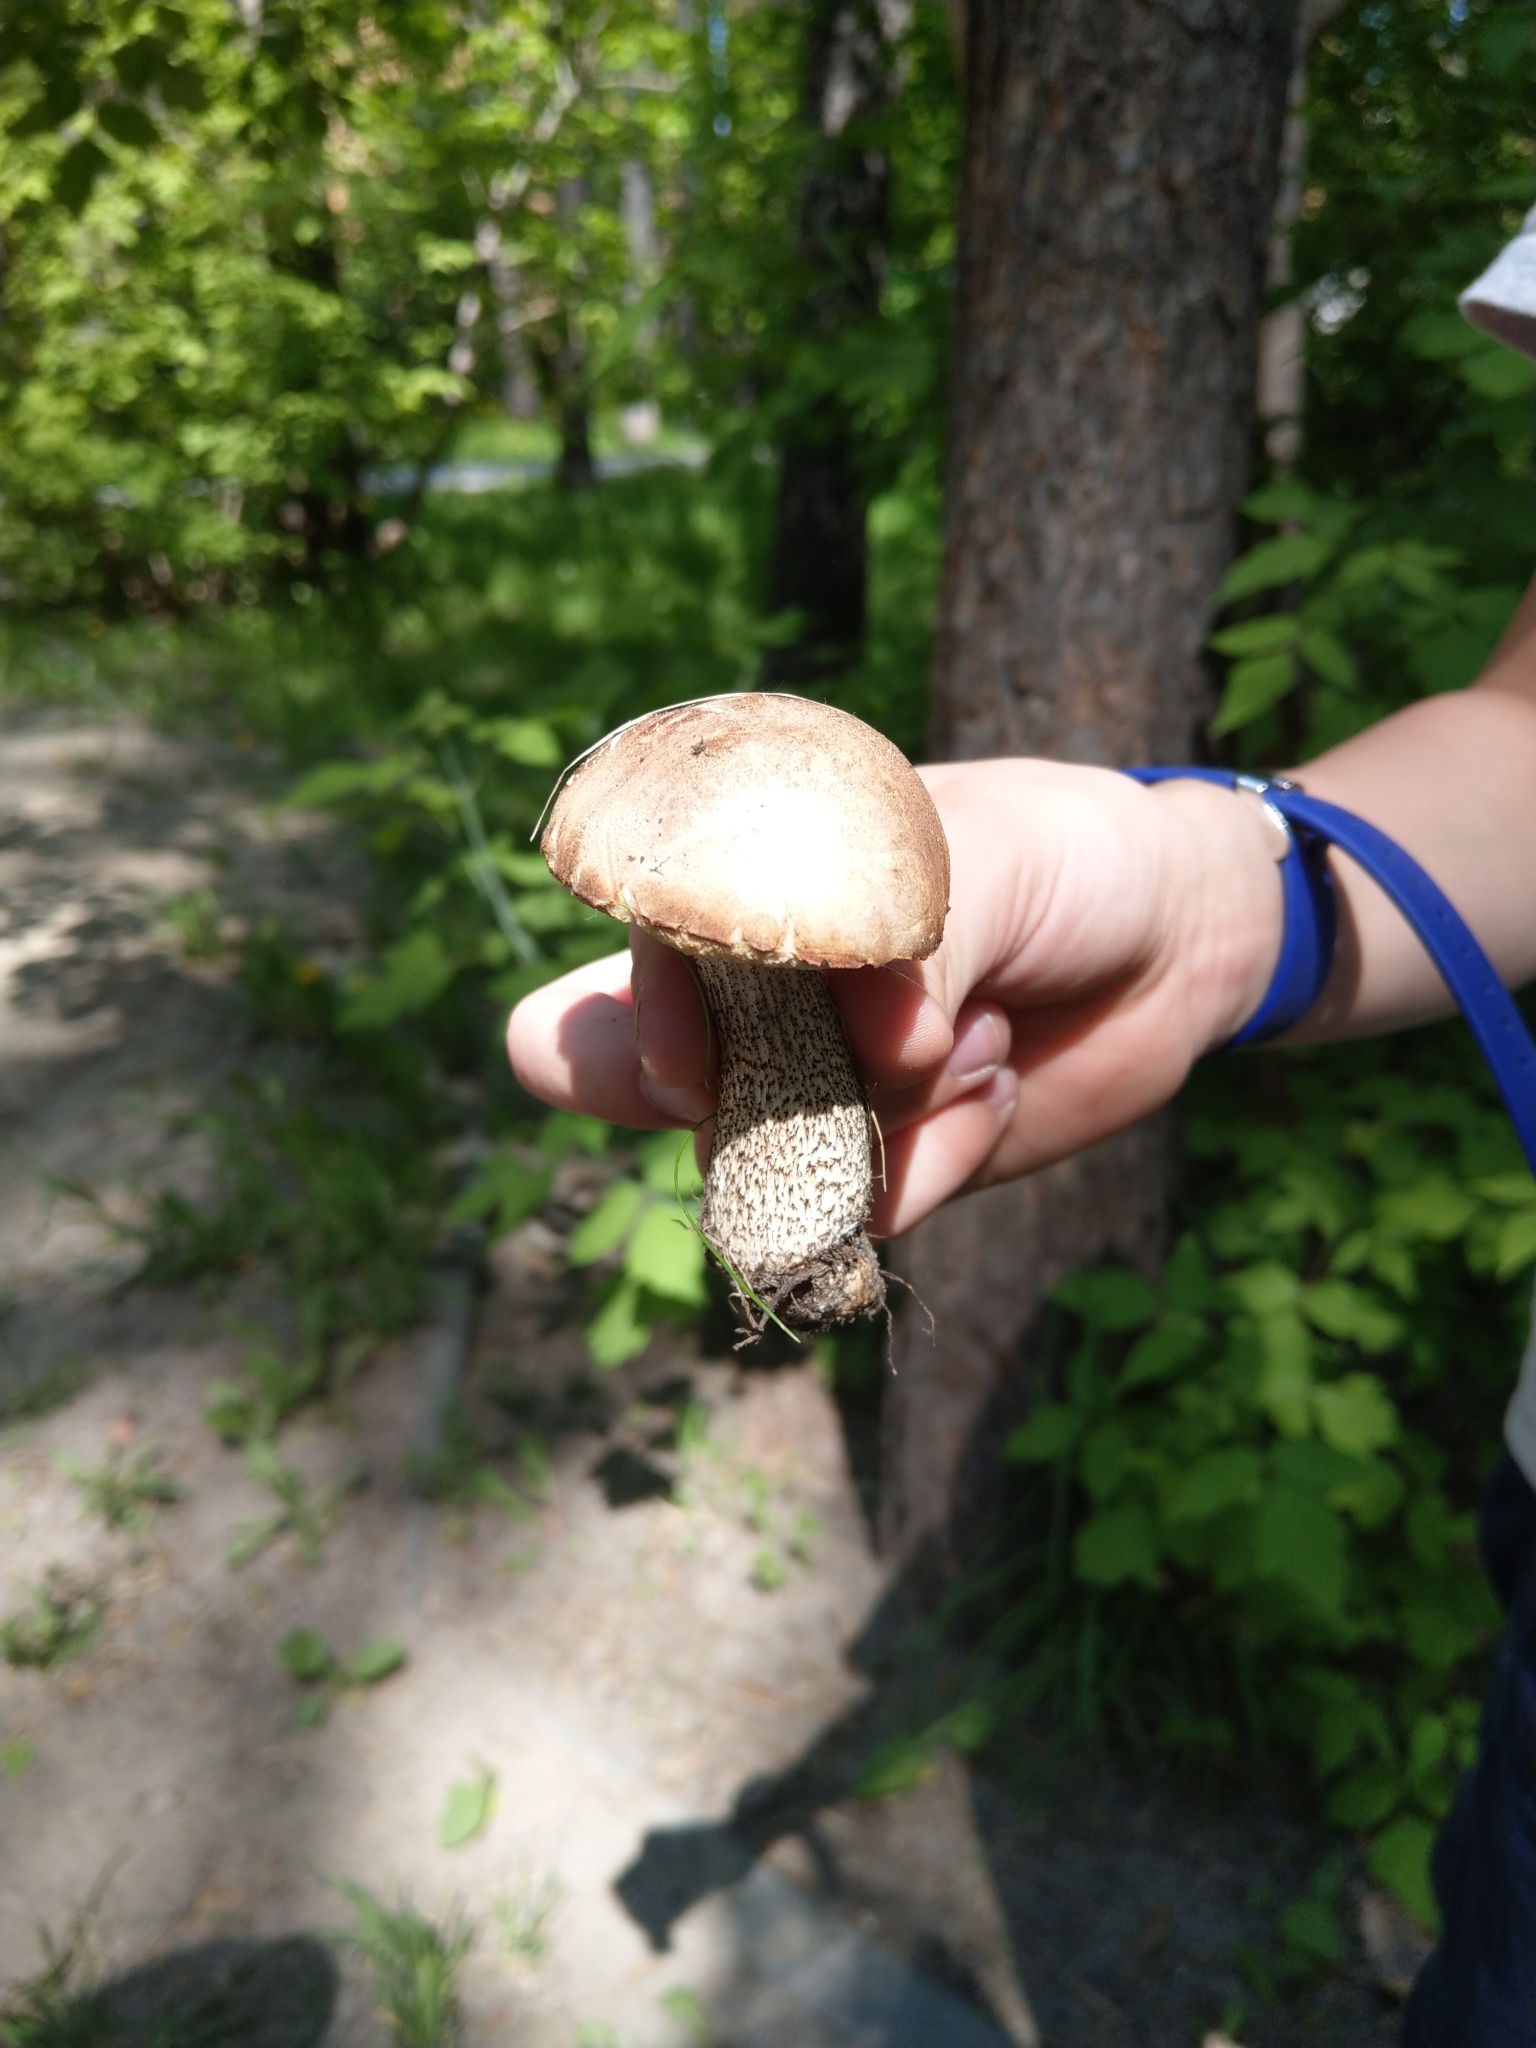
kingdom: Fungi
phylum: Basidiomycota
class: Agaricomycetes
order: Boletales
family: Boletaceae
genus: Leccinum
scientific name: Leccinum scabrum
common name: Blushing bolete
